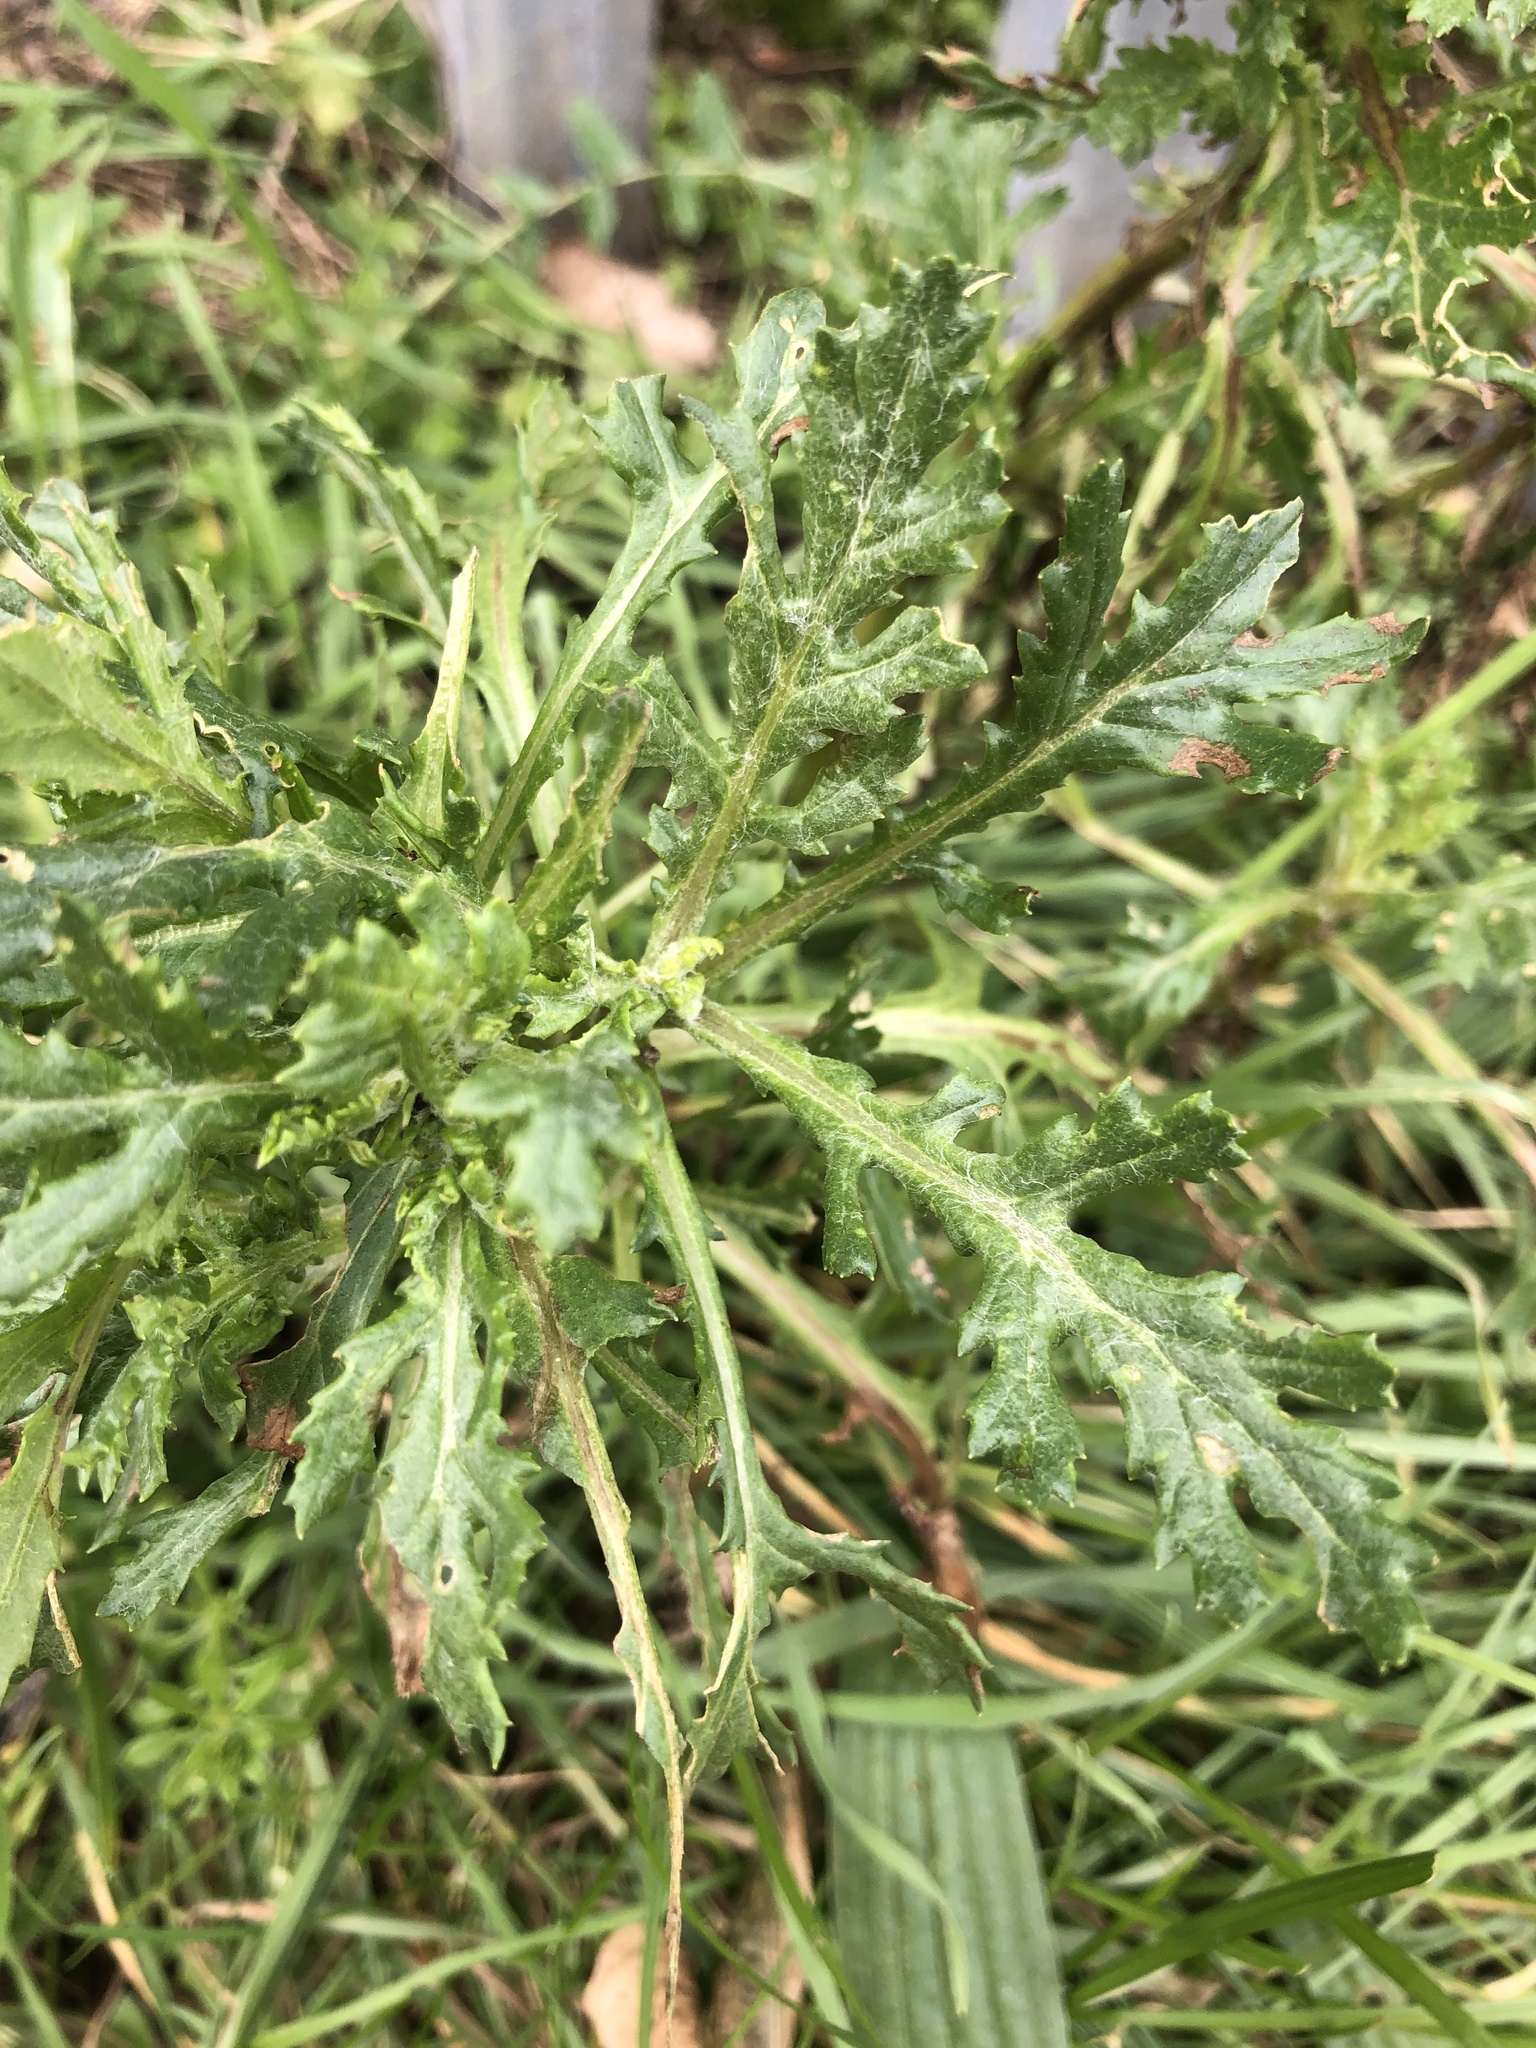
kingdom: Plantae
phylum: Tracheophyta
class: Magnoliopsida
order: Asterales
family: Asteraceae
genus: Senecio
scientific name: Senecio squalidus
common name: Oxford ragwort
